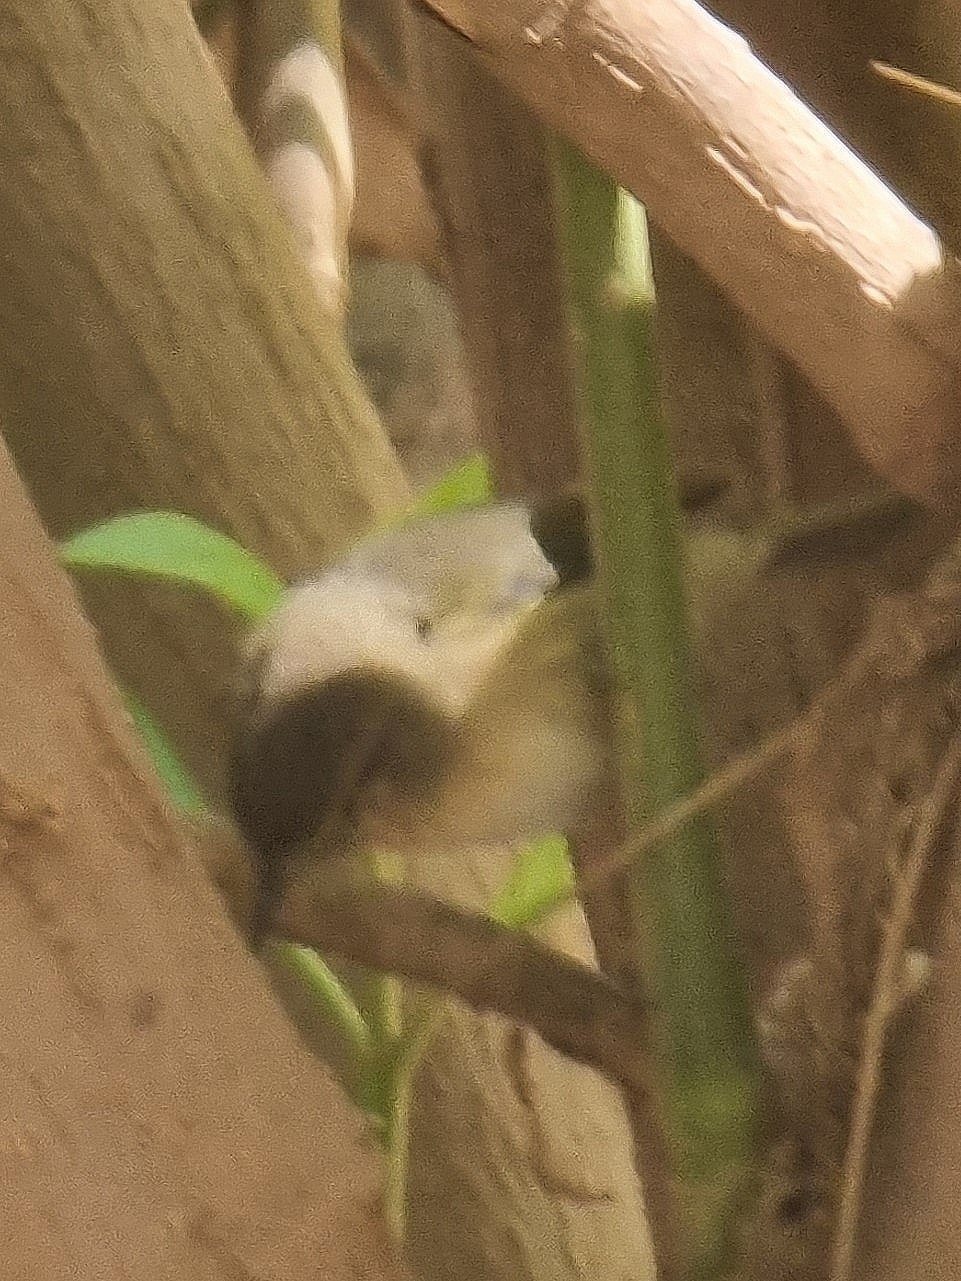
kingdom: Animalia
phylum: Chordata
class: Aves
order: Passeriformes
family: Phylloscopidae
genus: Phylloscopus
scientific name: Phylloscopus canariensis
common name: Canary islands chiffchaff
